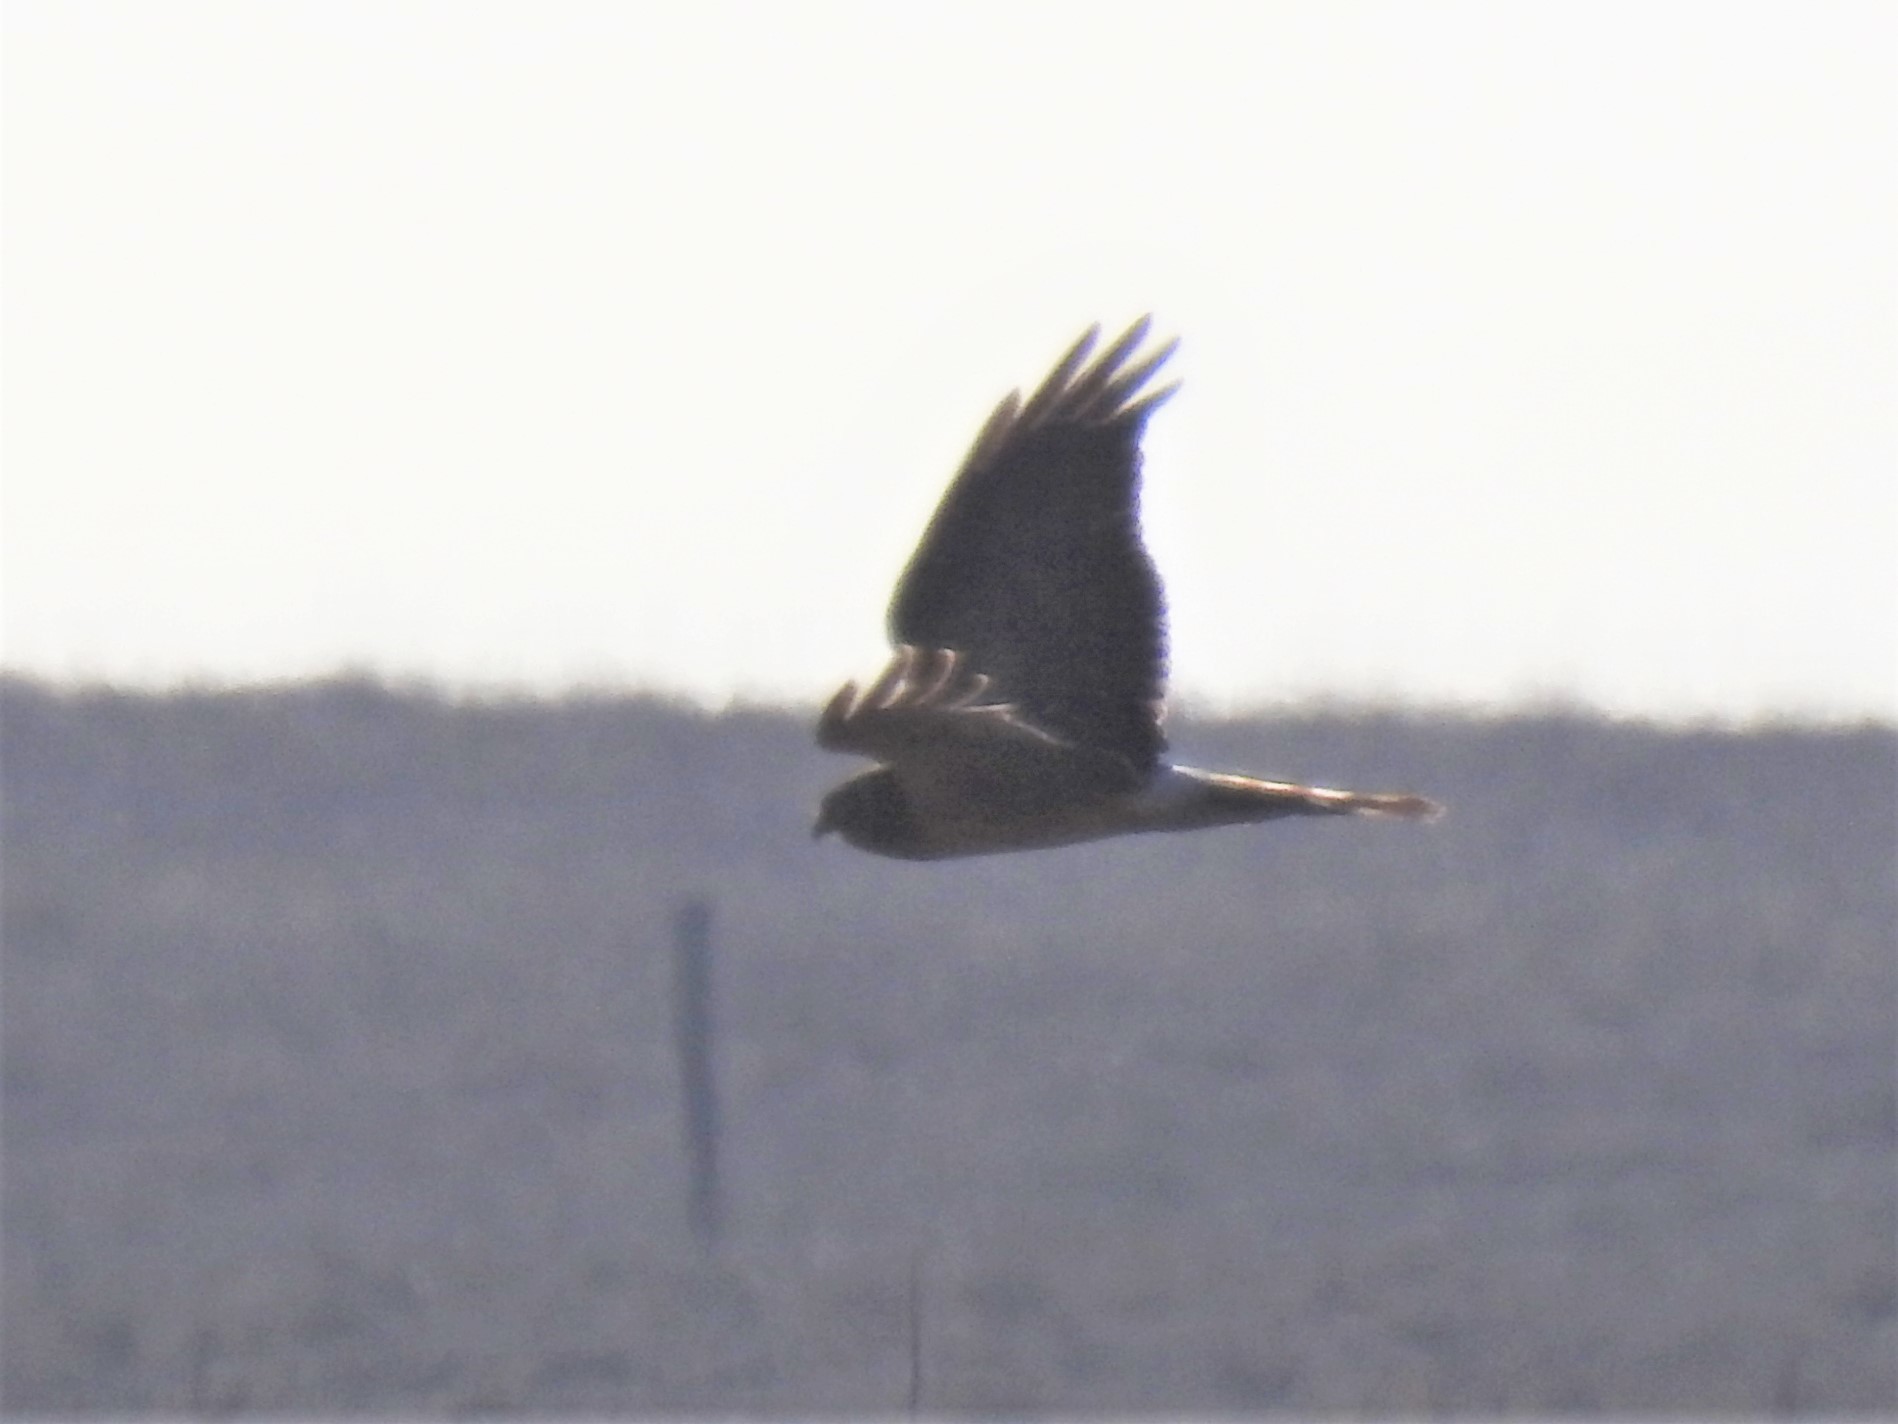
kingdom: Animalia
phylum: Chordata
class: Aves
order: Accipitriformes
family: Accipitridae
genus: Circus
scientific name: Circus cyaneus
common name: Hen harrier
